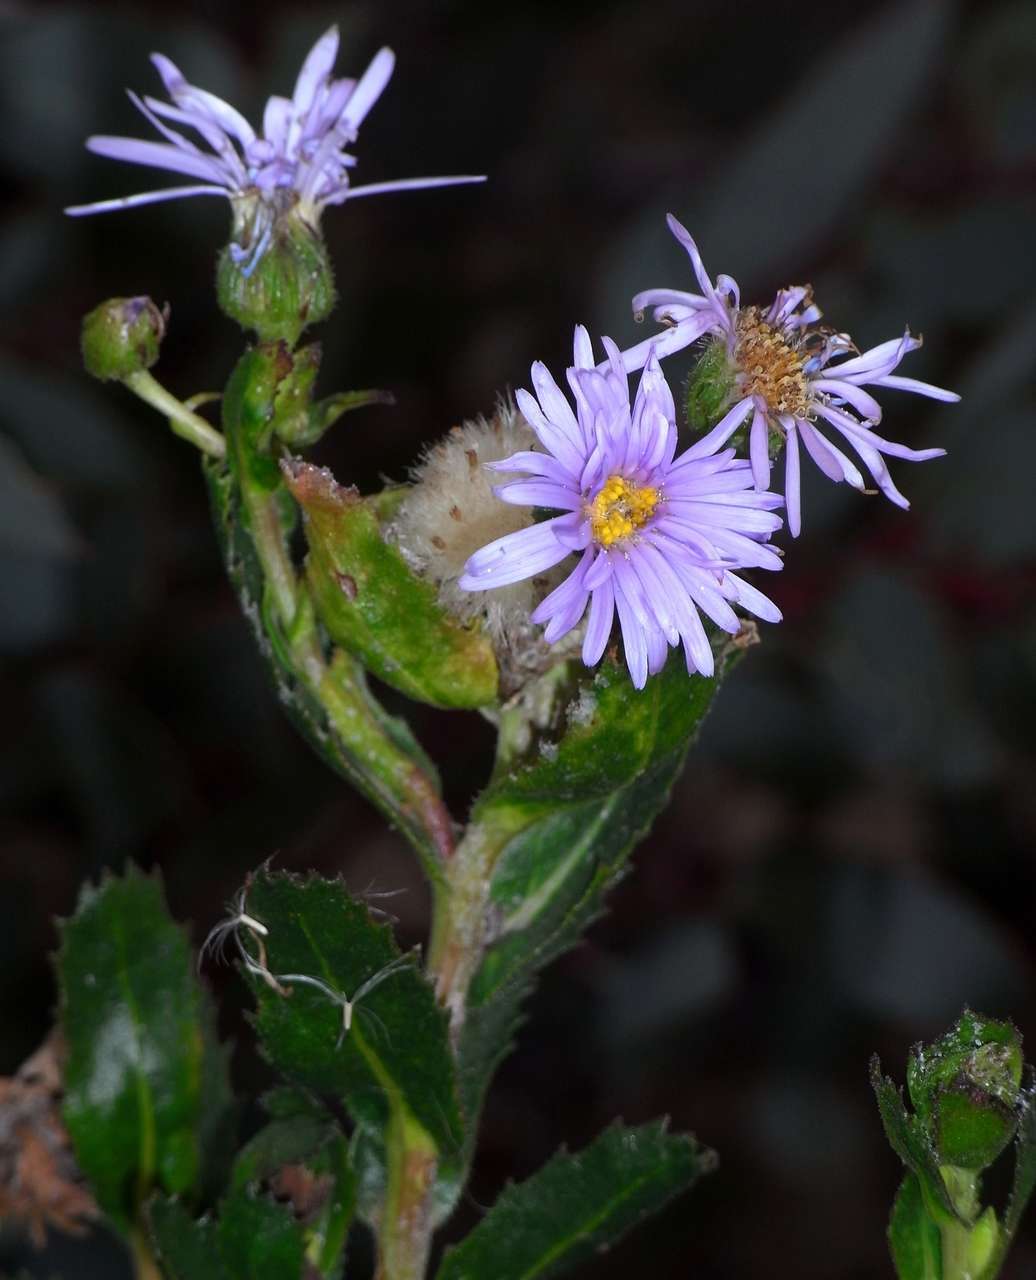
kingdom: Plantae
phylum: Tracheophyta
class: Magnoliopsida
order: Asterales
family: Asteraceae
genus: Muellerolaria
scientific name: Muellerolaria rudis
